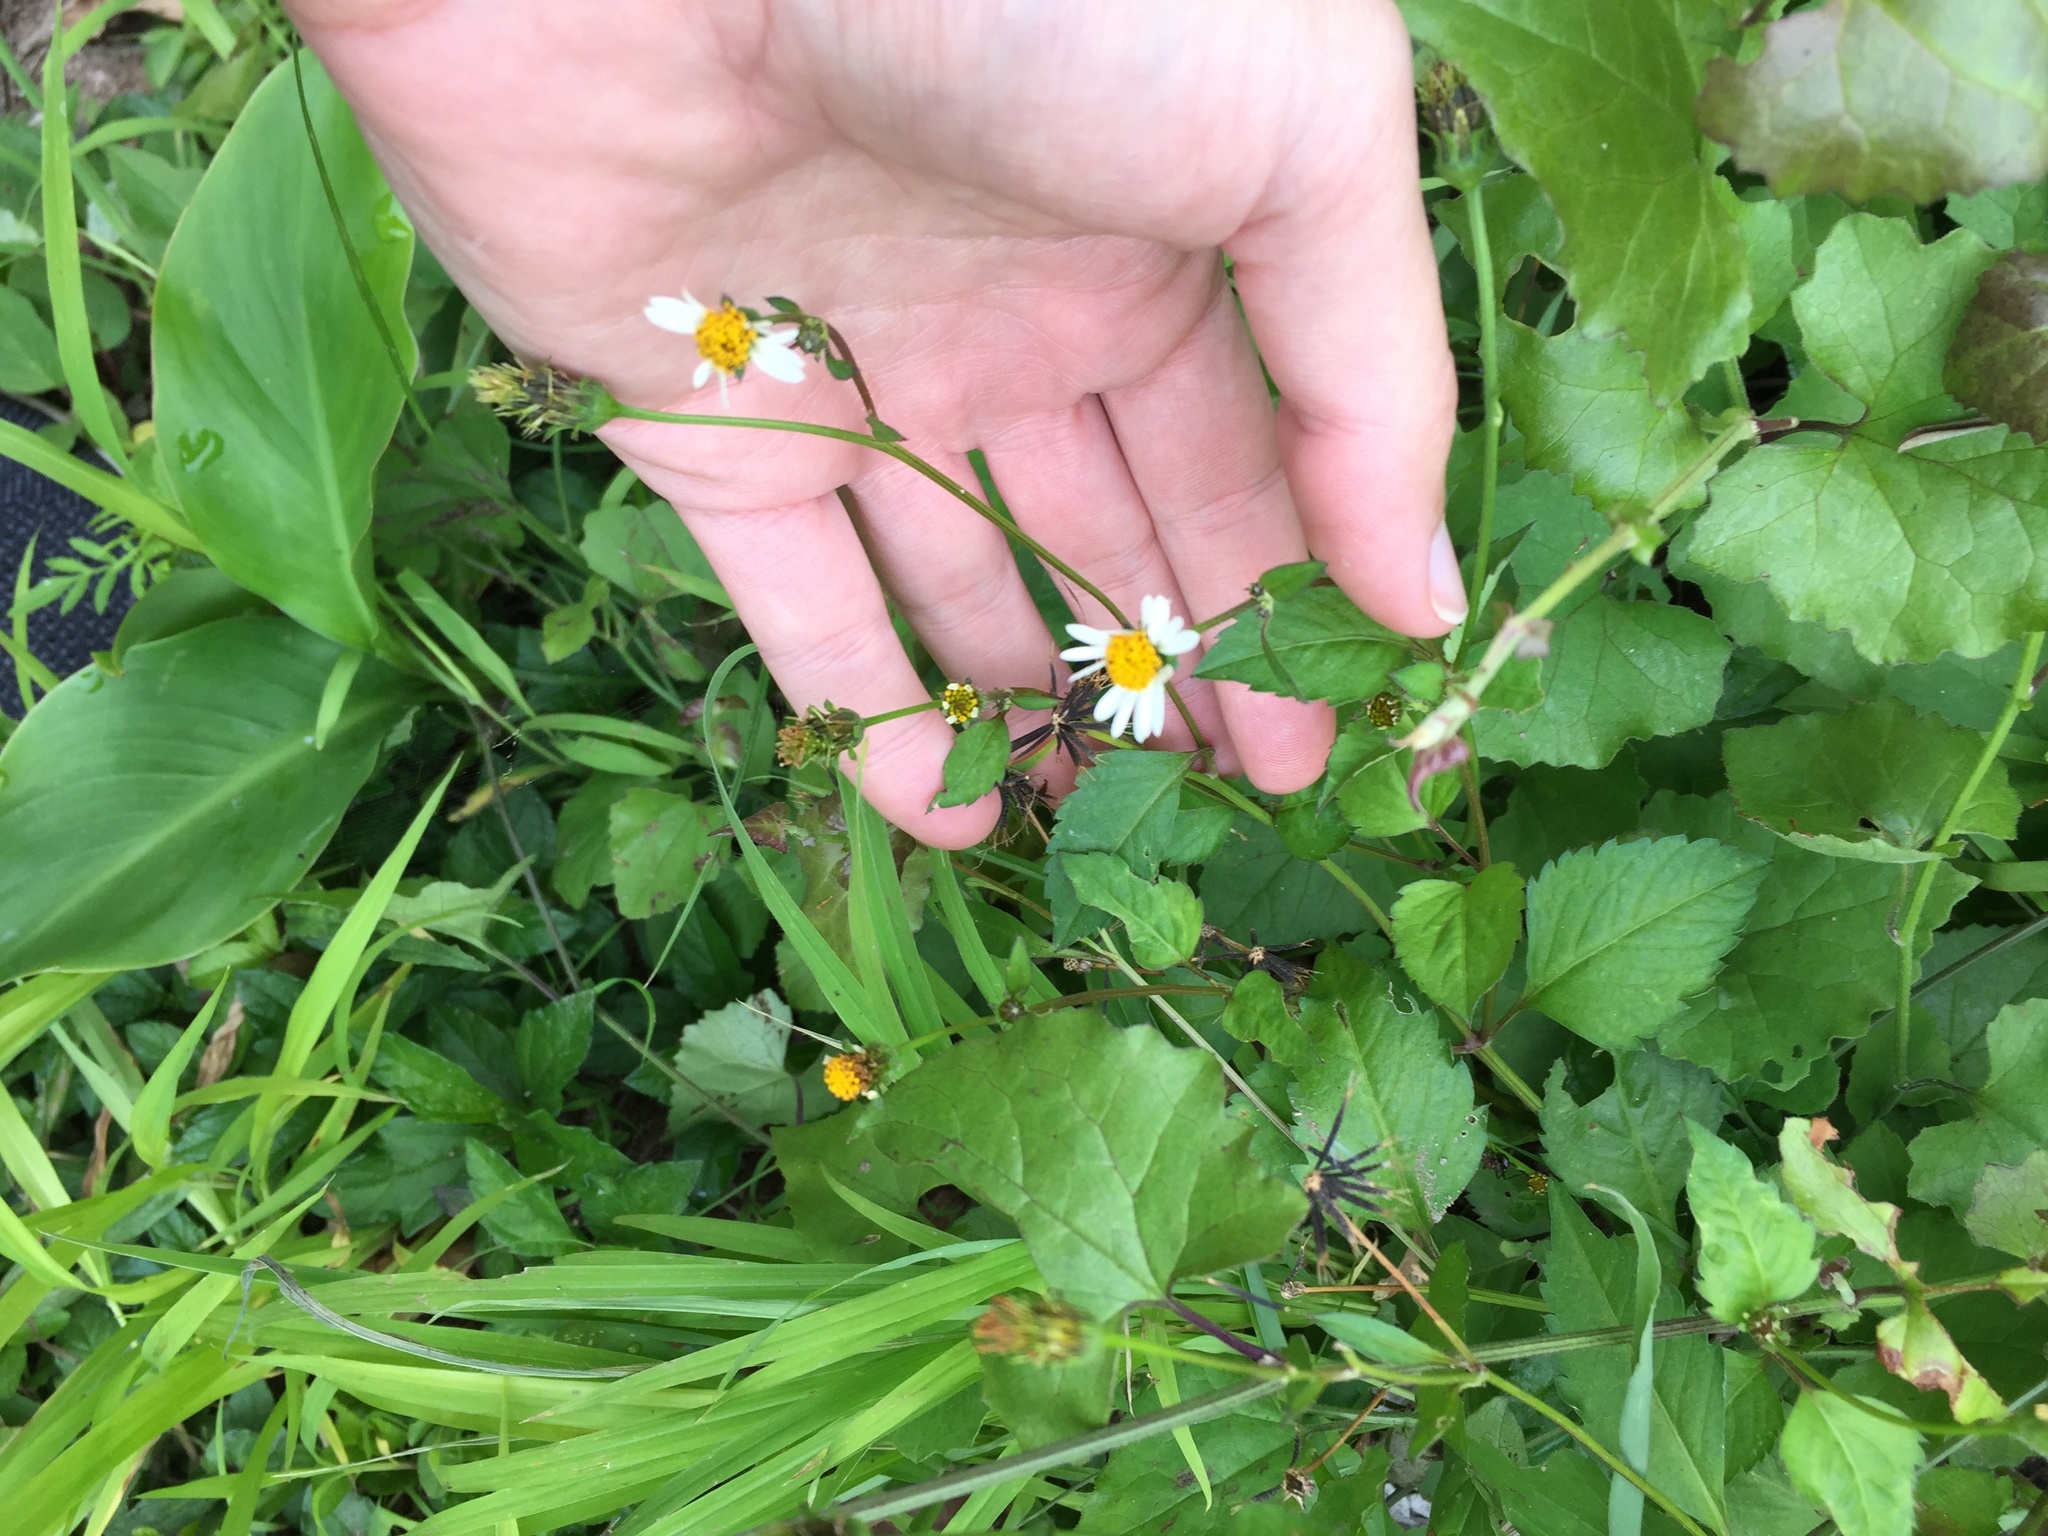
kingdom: Plantae
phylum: Tracheophyta
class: Magnoliopsida
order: Asterales
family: Asteraceae
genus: Bidens
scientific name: Bidens pilosa
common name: Black-jack
